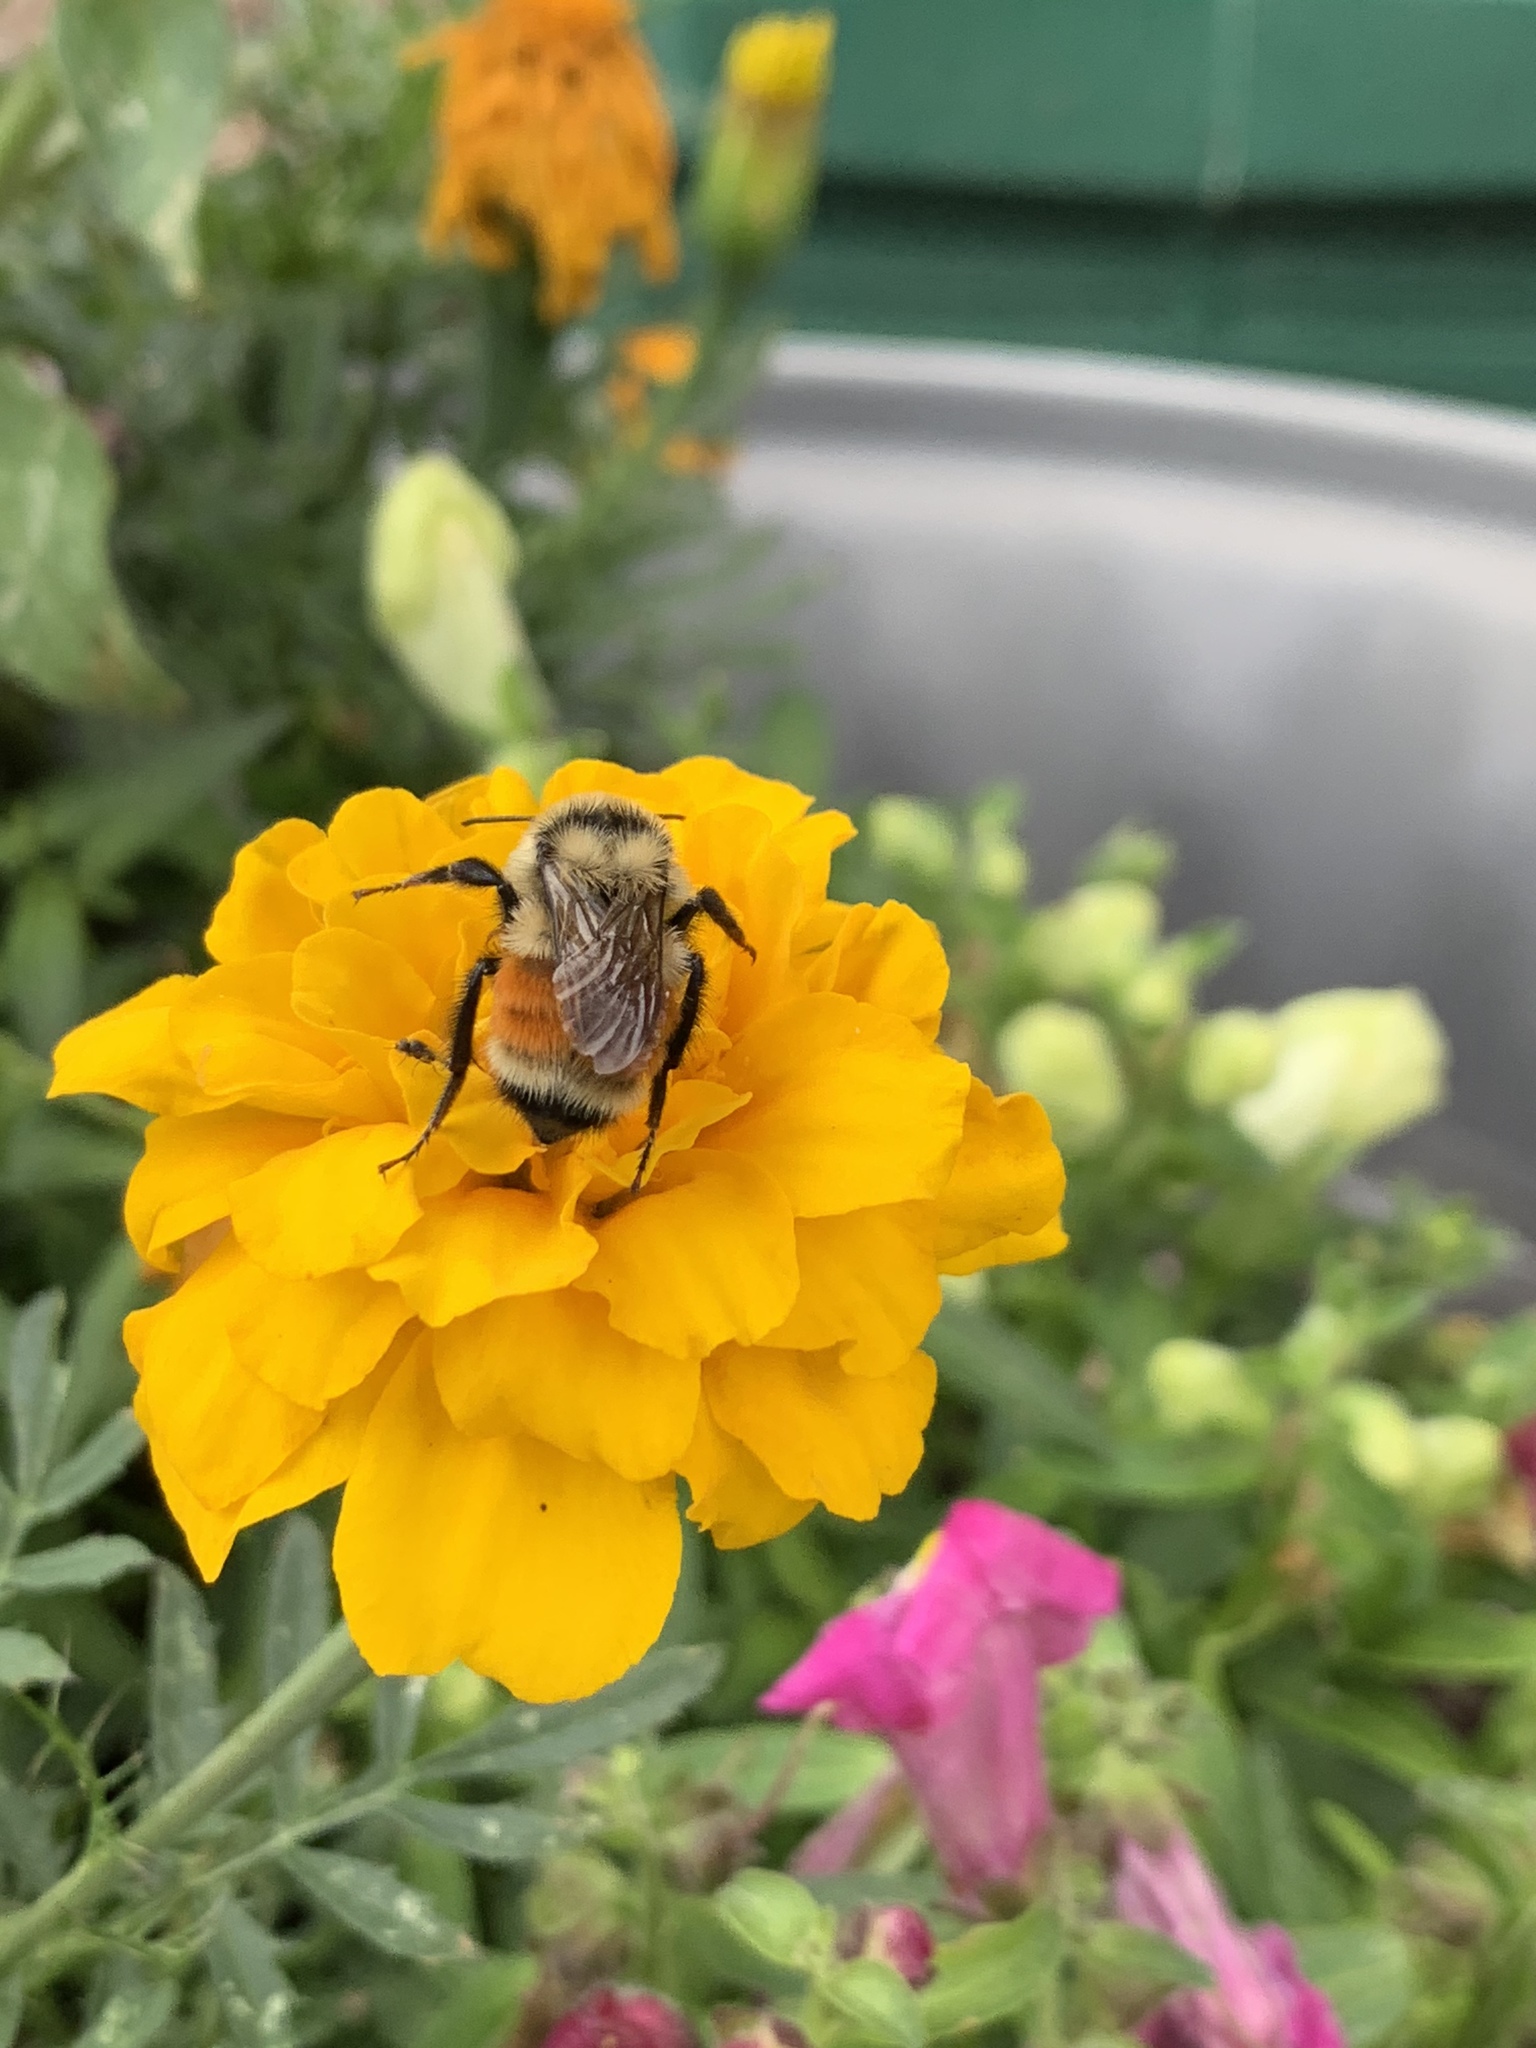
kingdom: Animalia
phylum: Arthropoda
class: Insecta
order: Hymenoptera
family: Apidae
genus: Bombus
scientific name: Bombus huntii
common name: Hunt bumble bee
